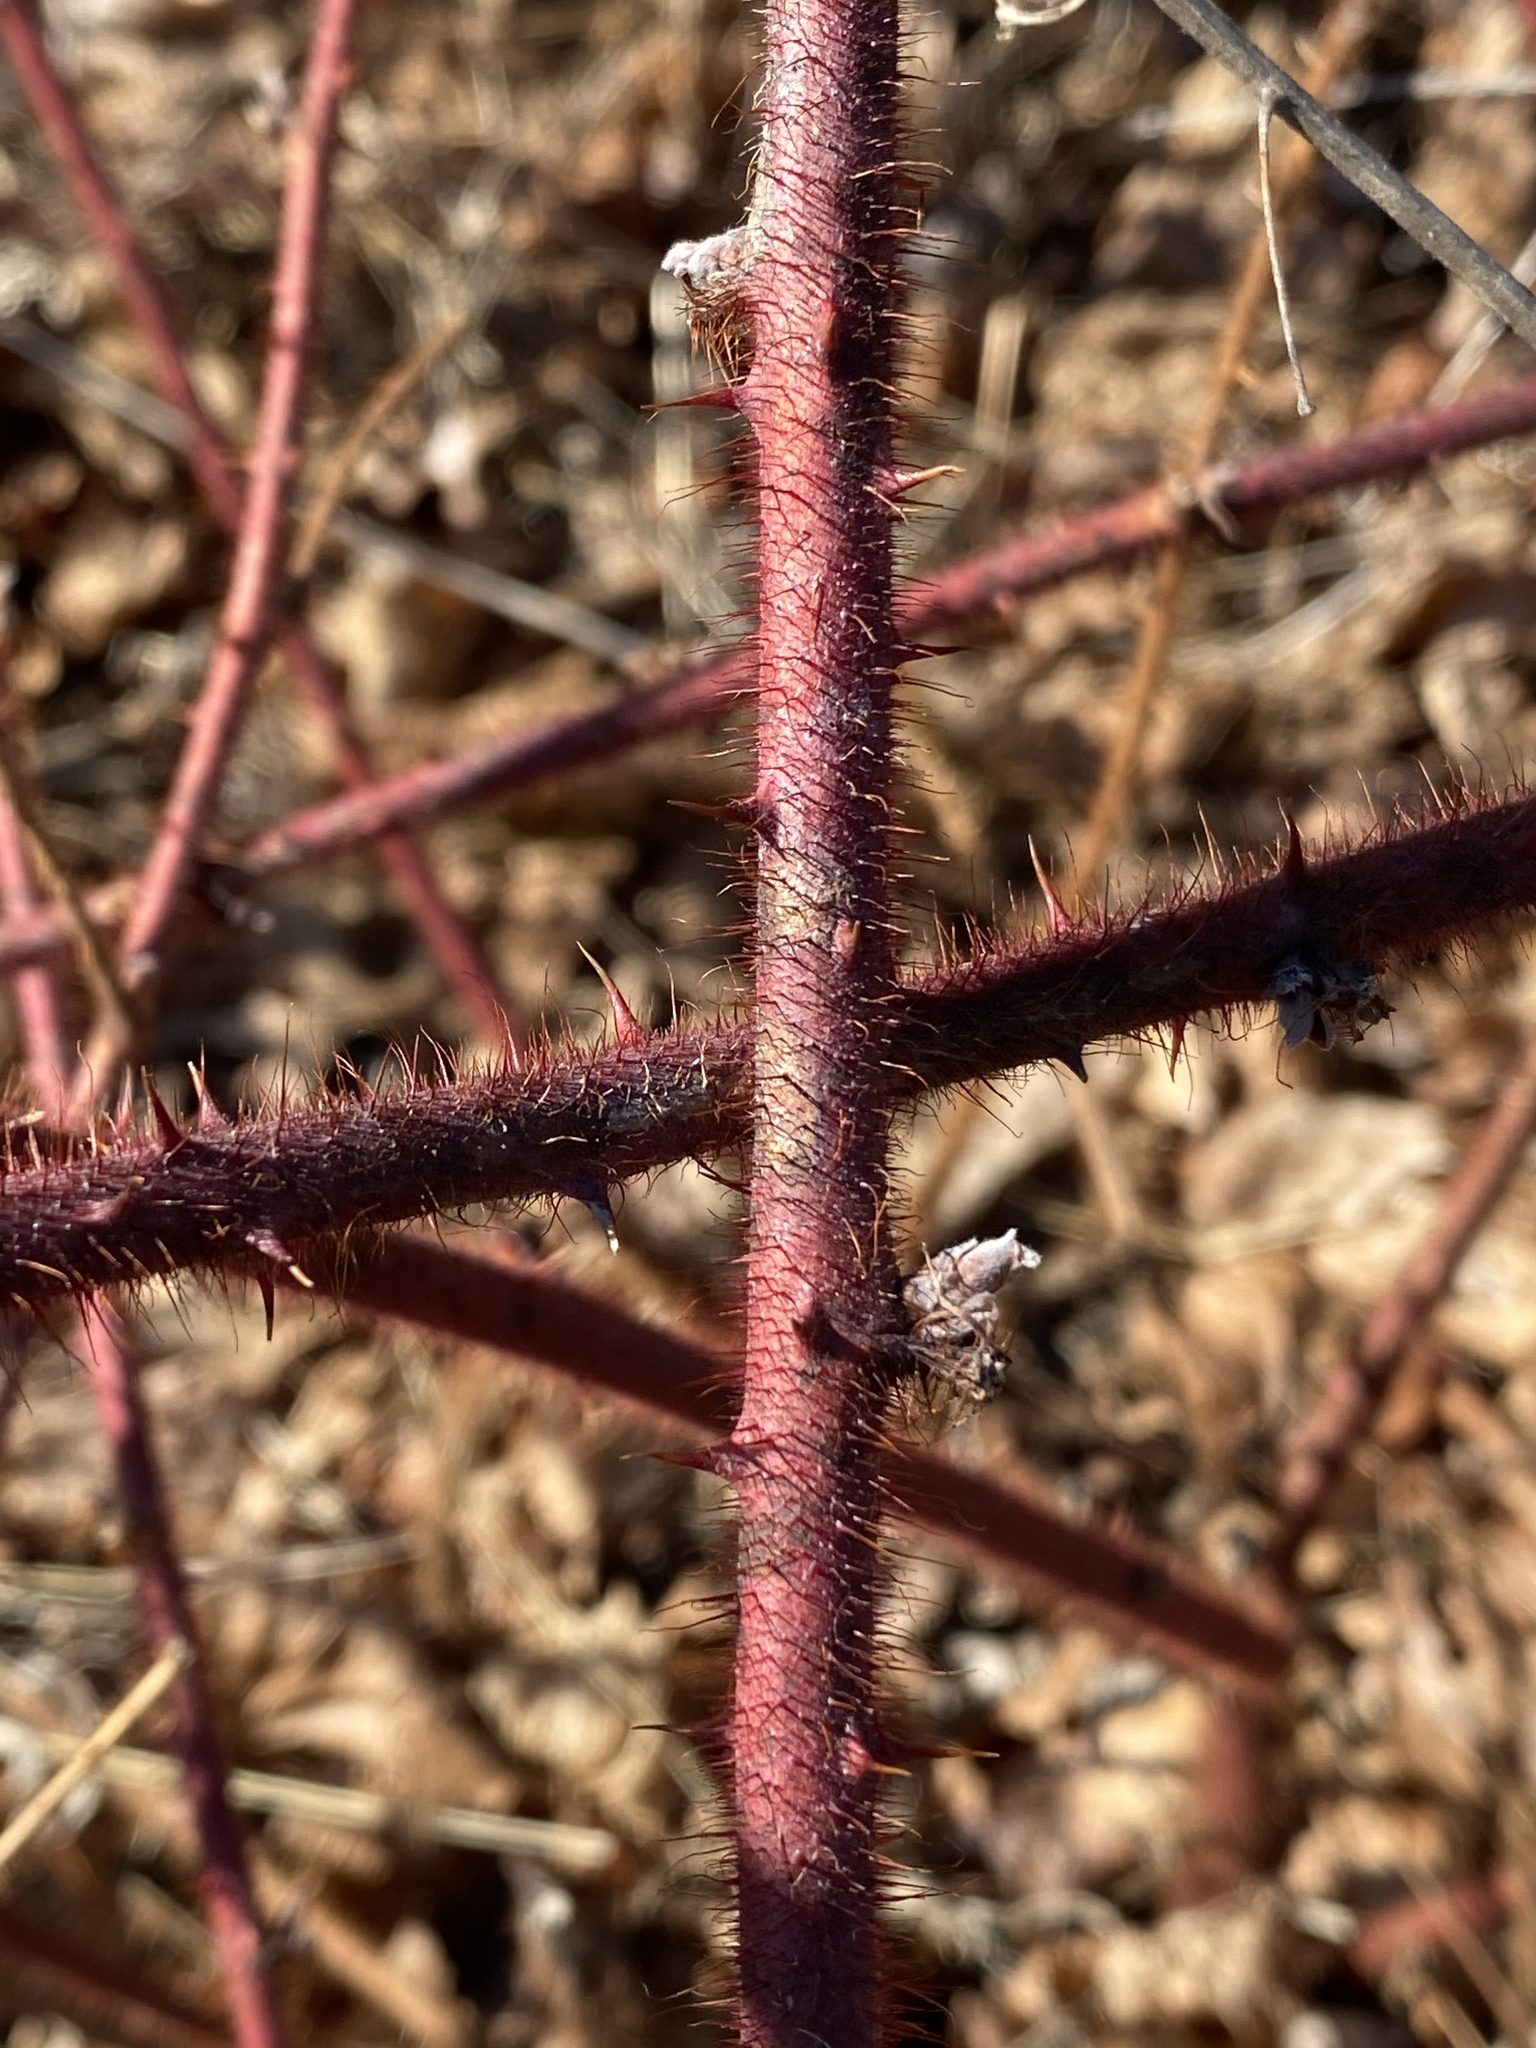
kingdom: Plantae
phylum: Tracheophyta
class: Magnoliopsida
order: Rosales
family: Rosaceae
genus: Rubus
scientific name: Rubus phoenicolasius
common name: Japanese wineberry
